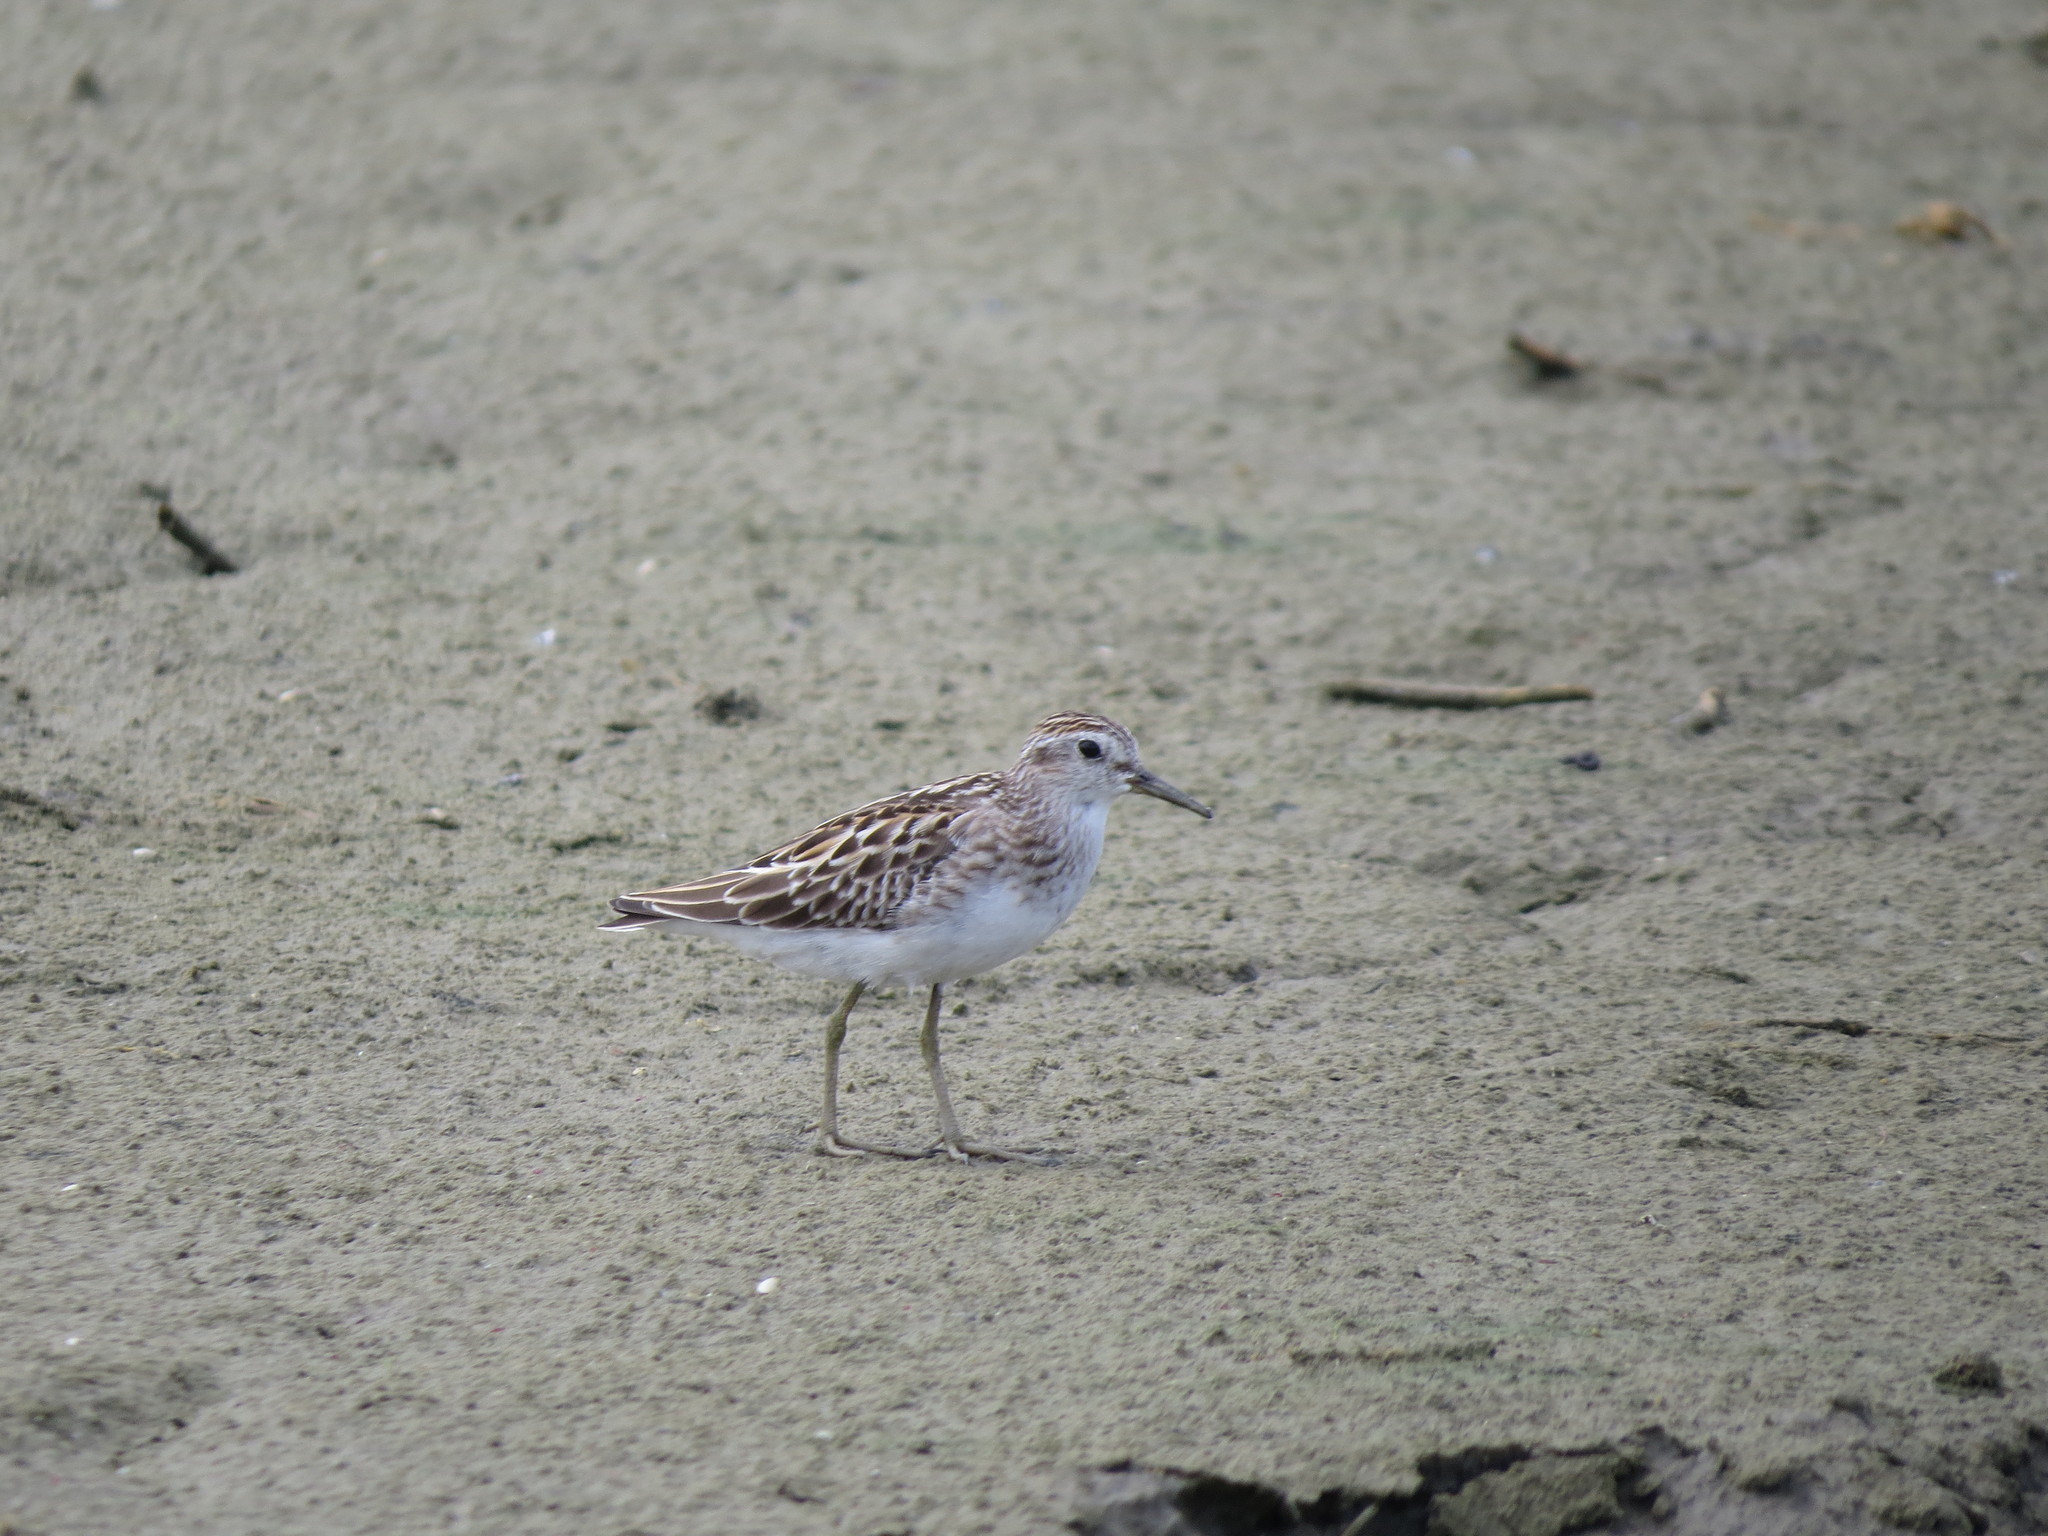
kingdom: Animalia
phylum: Chordata
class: Aves
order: Charadriiformes
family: Scolopacidae
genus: Calidris
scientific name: Calidris subminuta
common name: Long-toed stint
